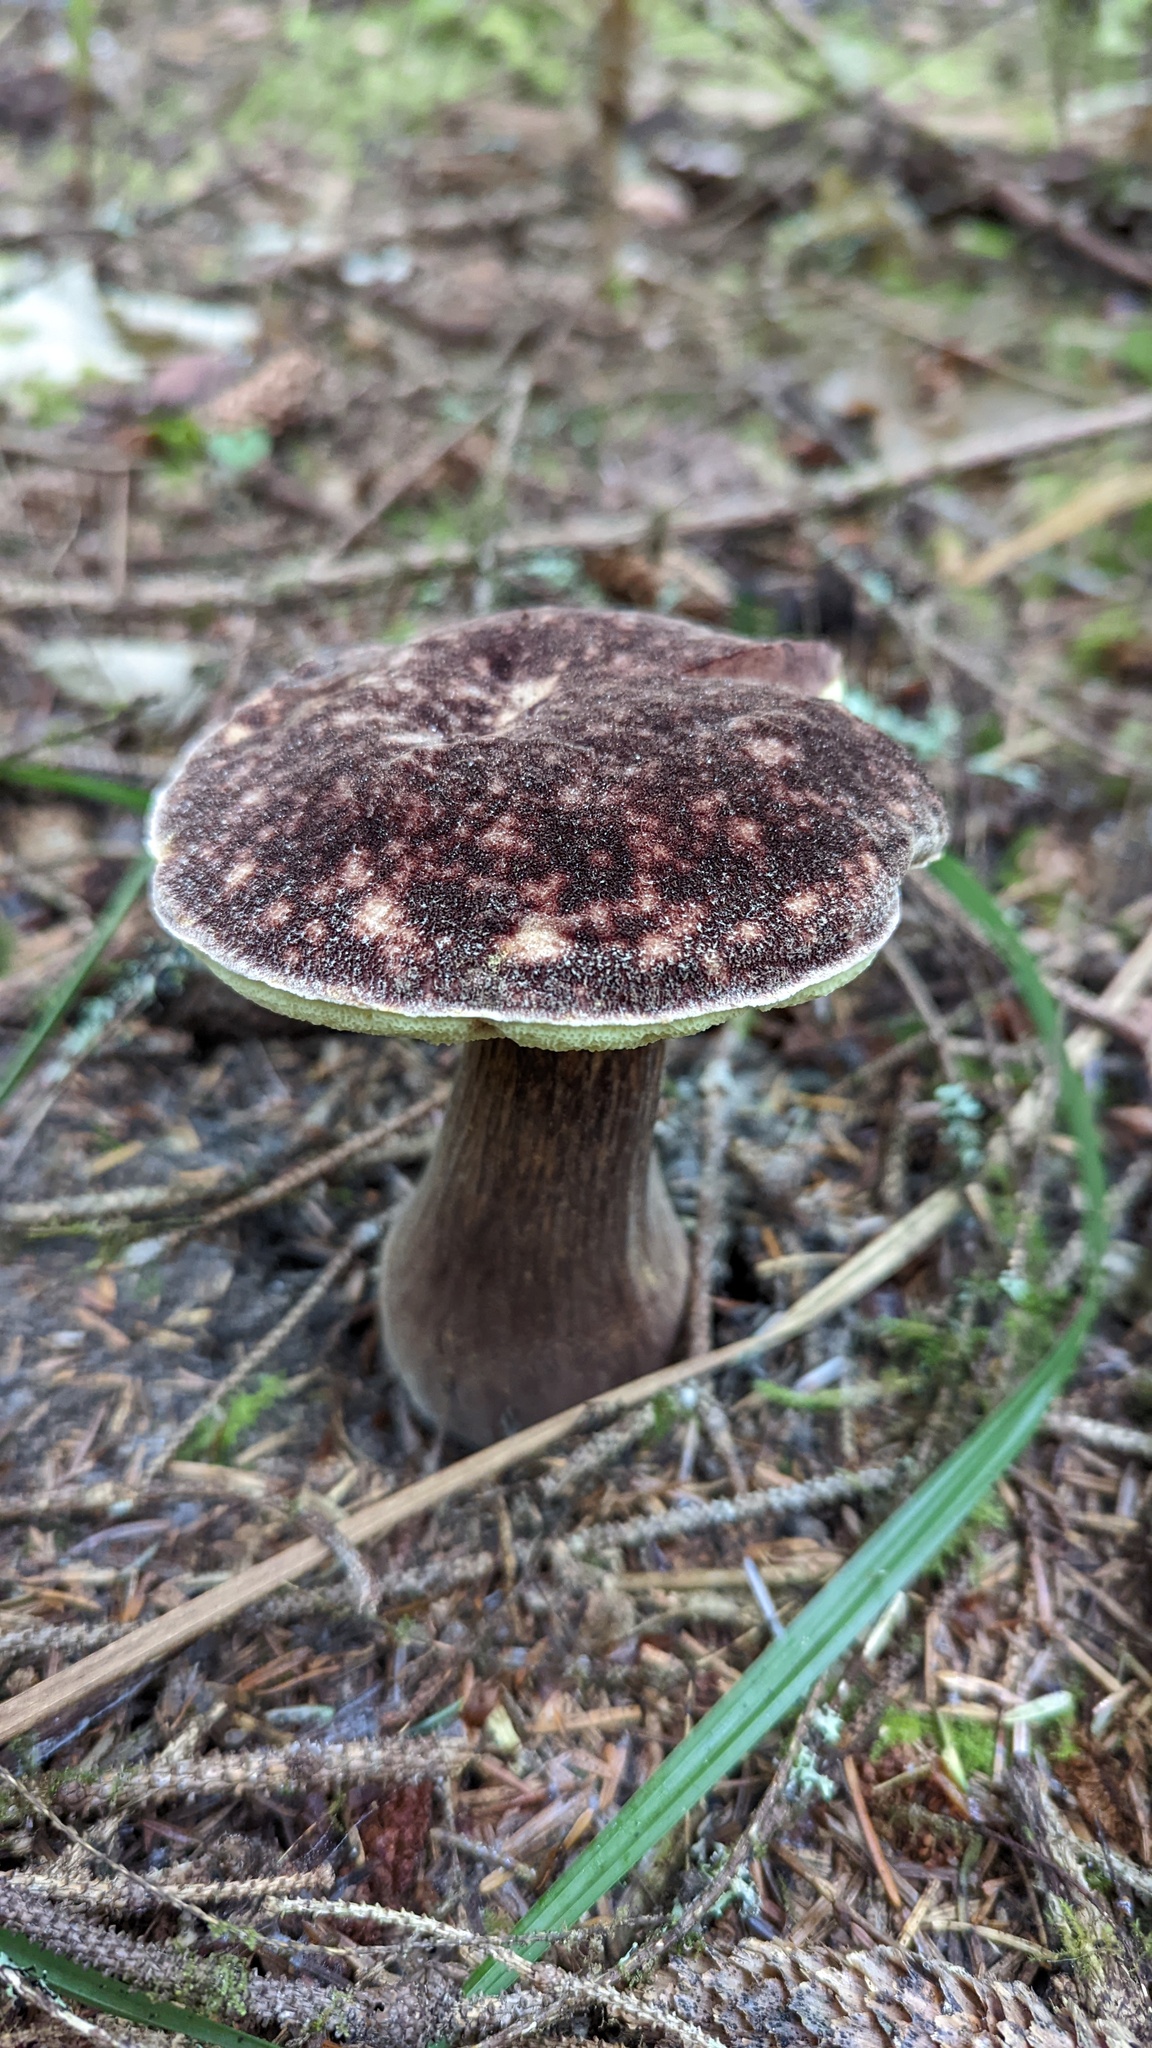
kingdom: Fungi
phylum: Basidiomycota
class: Agaricomycetes
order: Boletales
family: Boletaceae
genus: Aureoboletus
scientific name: Aureoboletus mirabilis
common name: Admirable bolete
